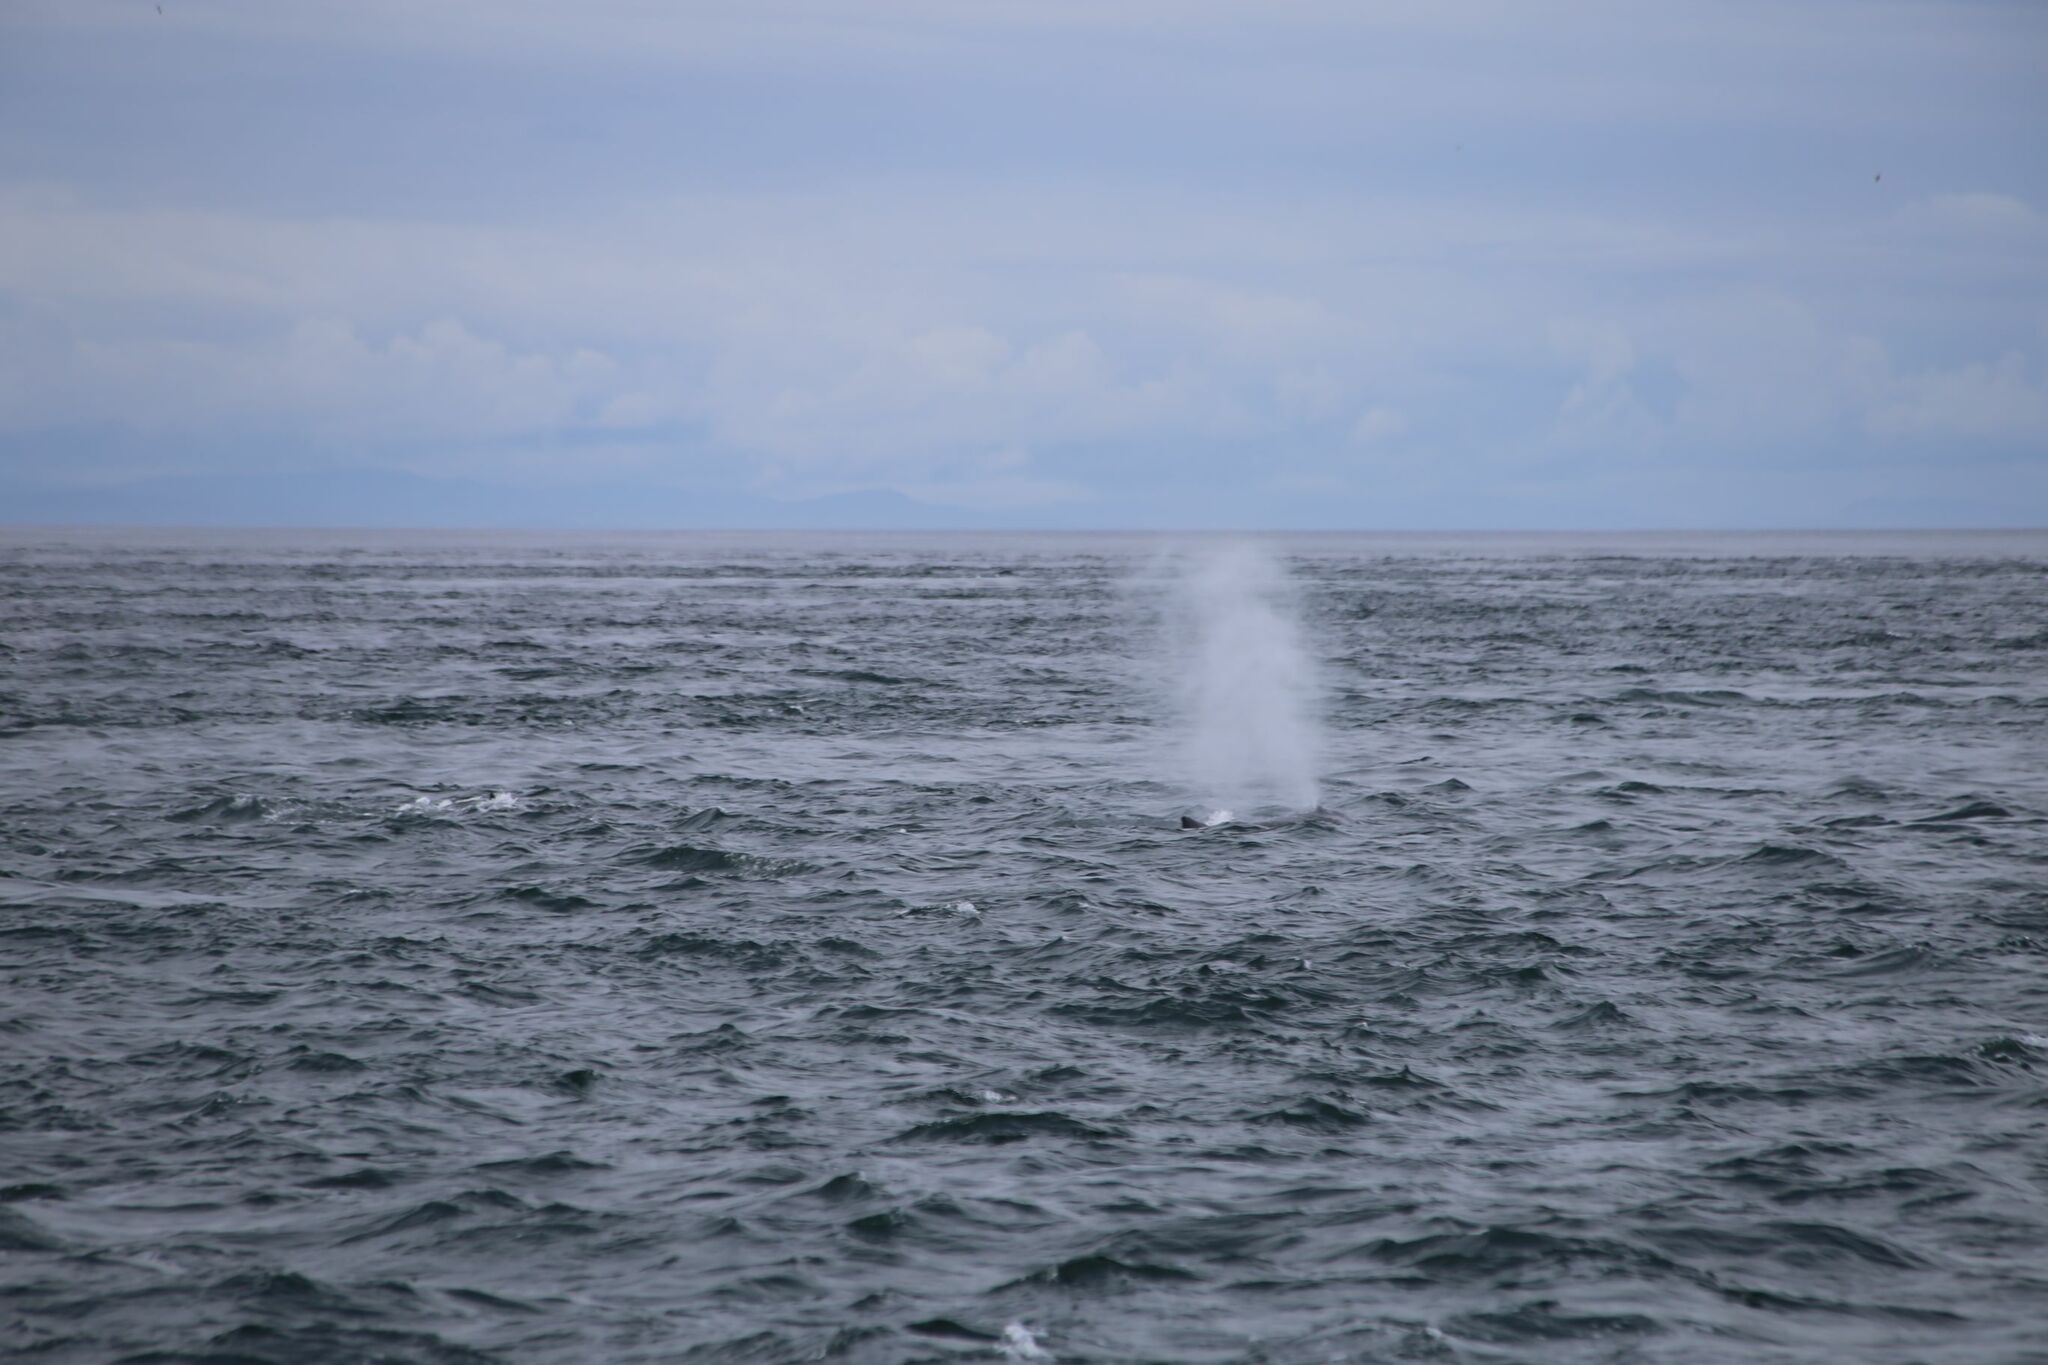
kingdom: Animalia
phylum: Chordata
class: Mammalia
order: Cetacea
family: Balaenopteridae
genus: Megaptera
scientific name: Megaptera novaeangliae
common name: Humpback whale
